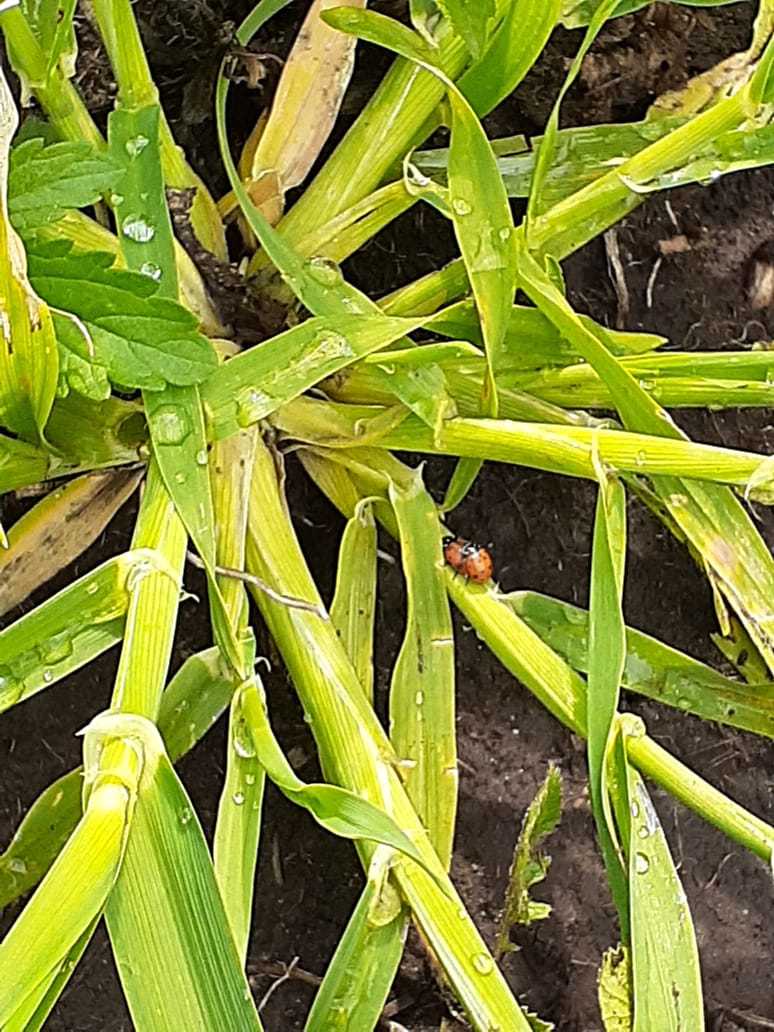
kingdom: Animalia
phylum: Arthropoda
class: Insecta
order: Coleoptera
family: Coccinellidae
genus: Hippodamia
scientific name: Hippodamia convergens
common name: Convergent lady beetle
